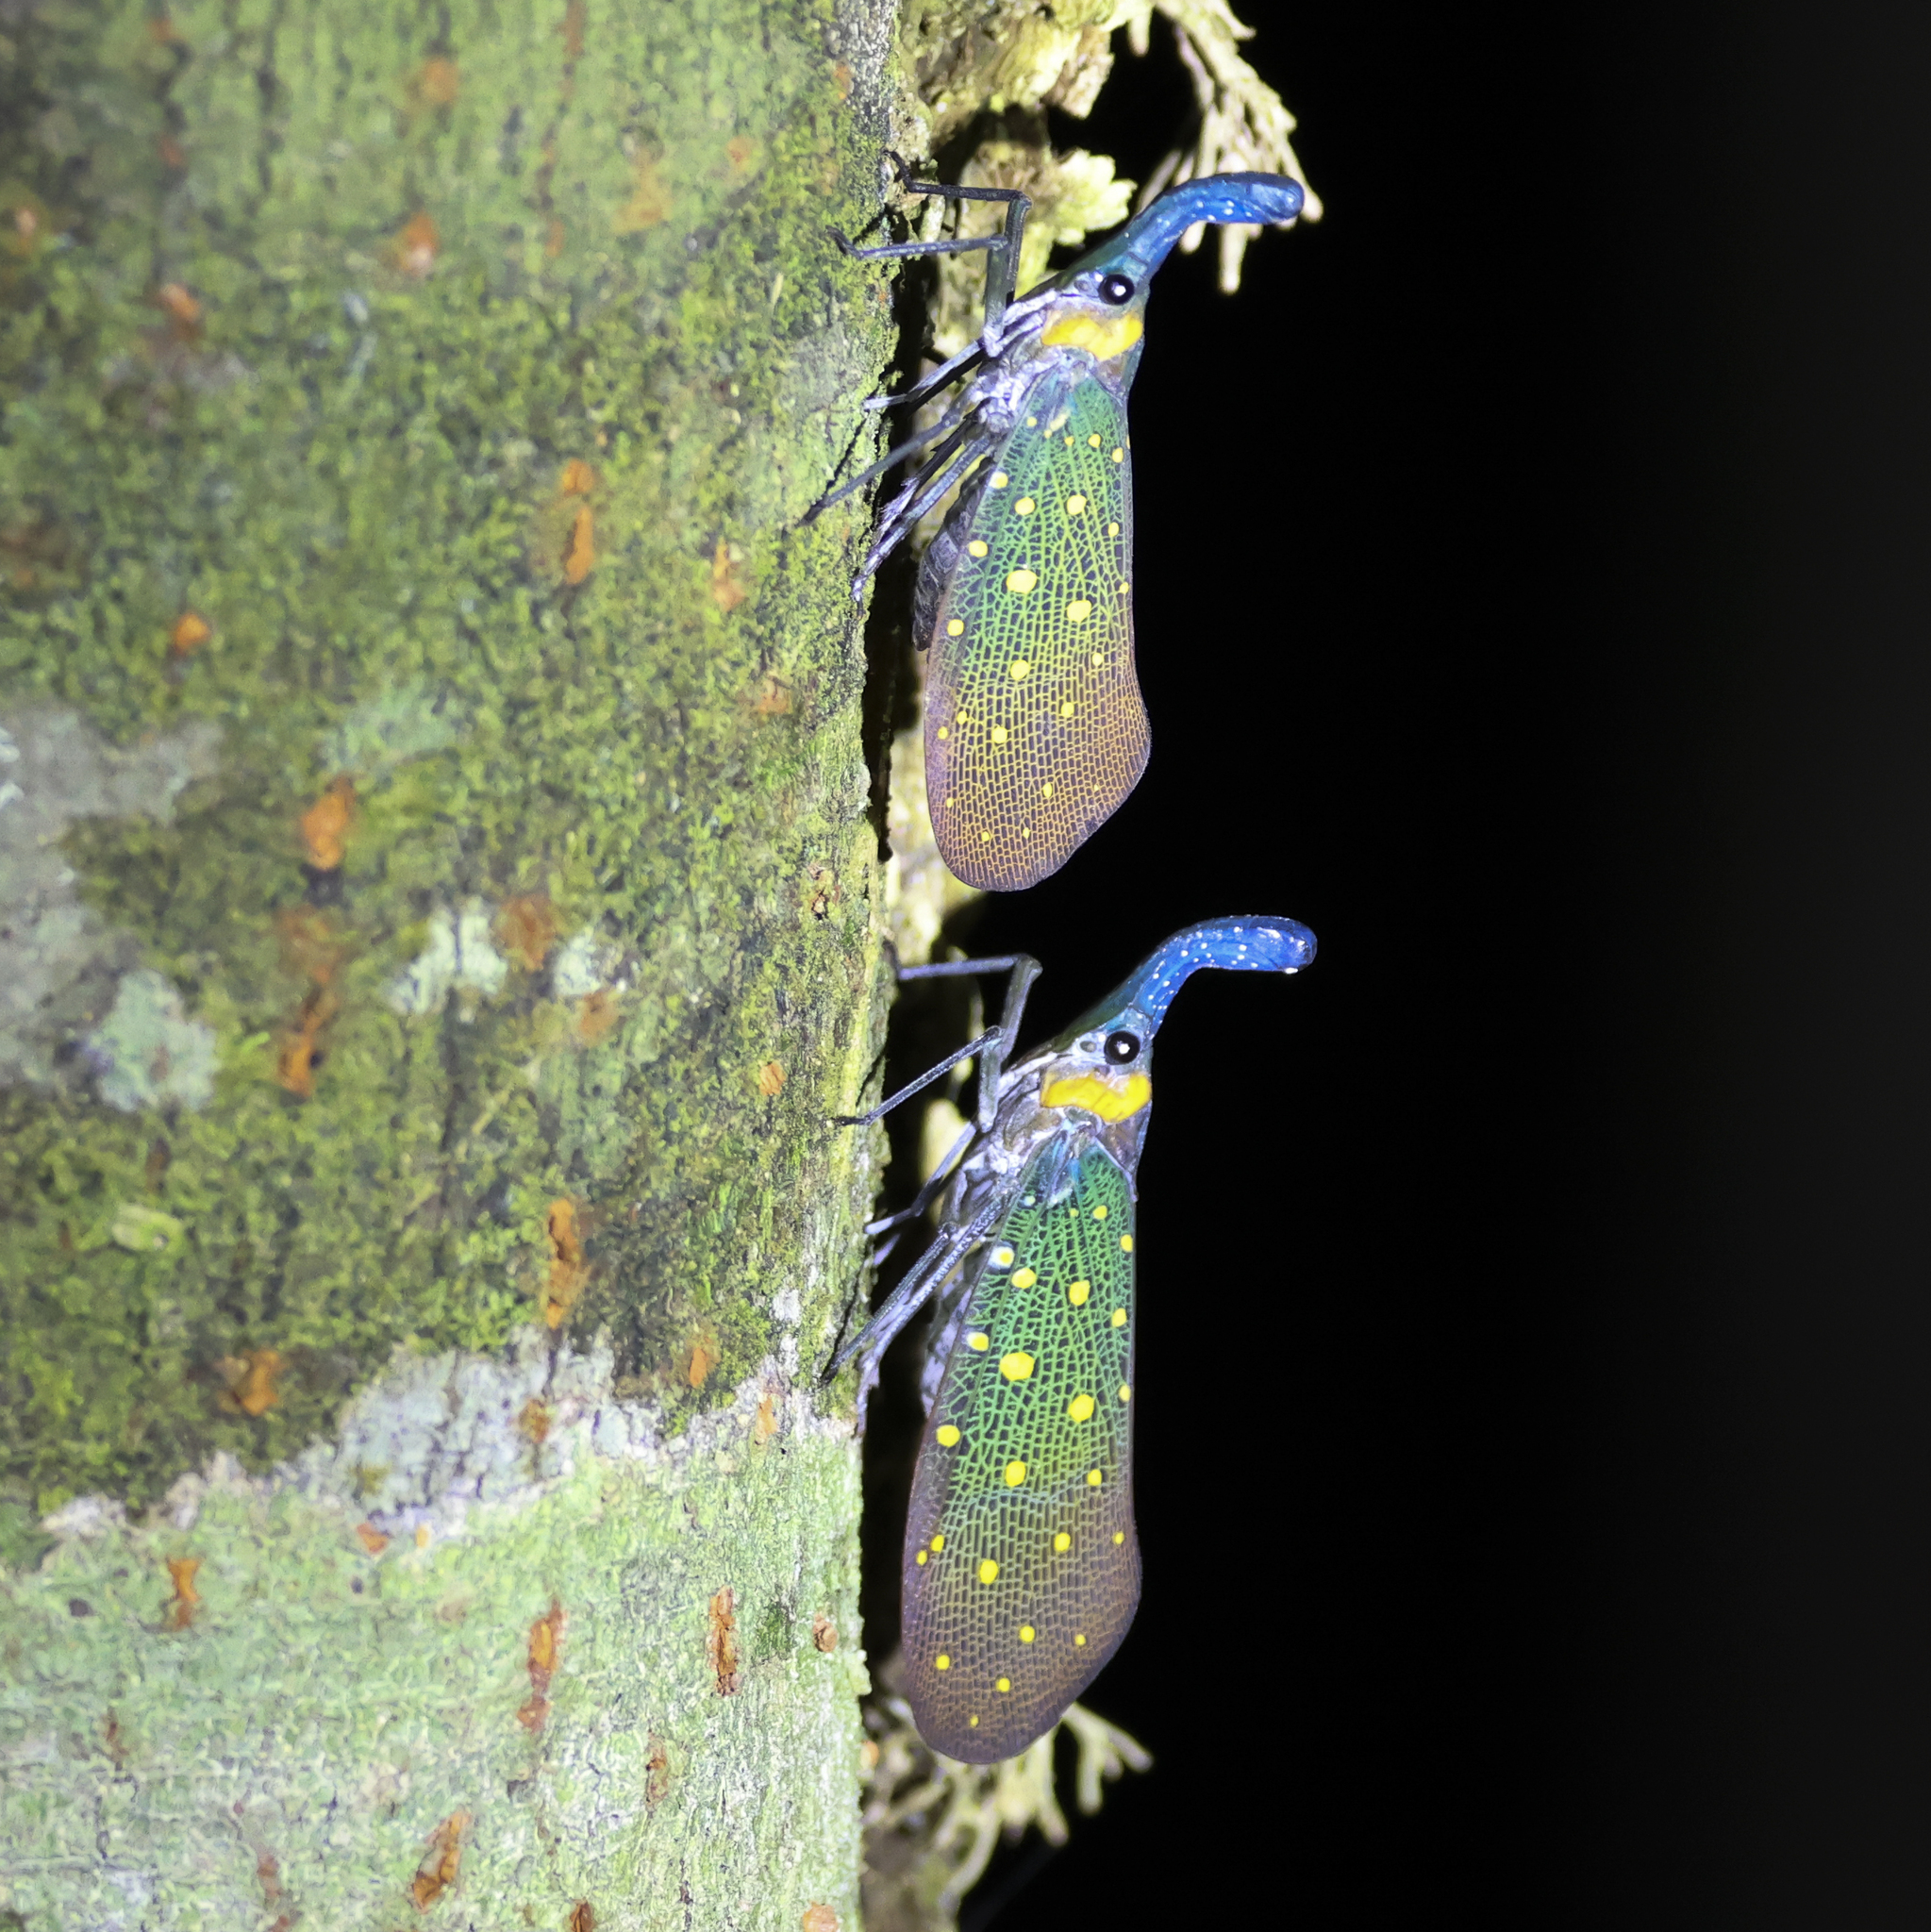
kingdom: Animalia
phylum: Arthropoda
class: Insecta
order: Hemiptera
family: Fulgoridae
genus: Pyrops
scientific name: Pyrops whiteheadi
